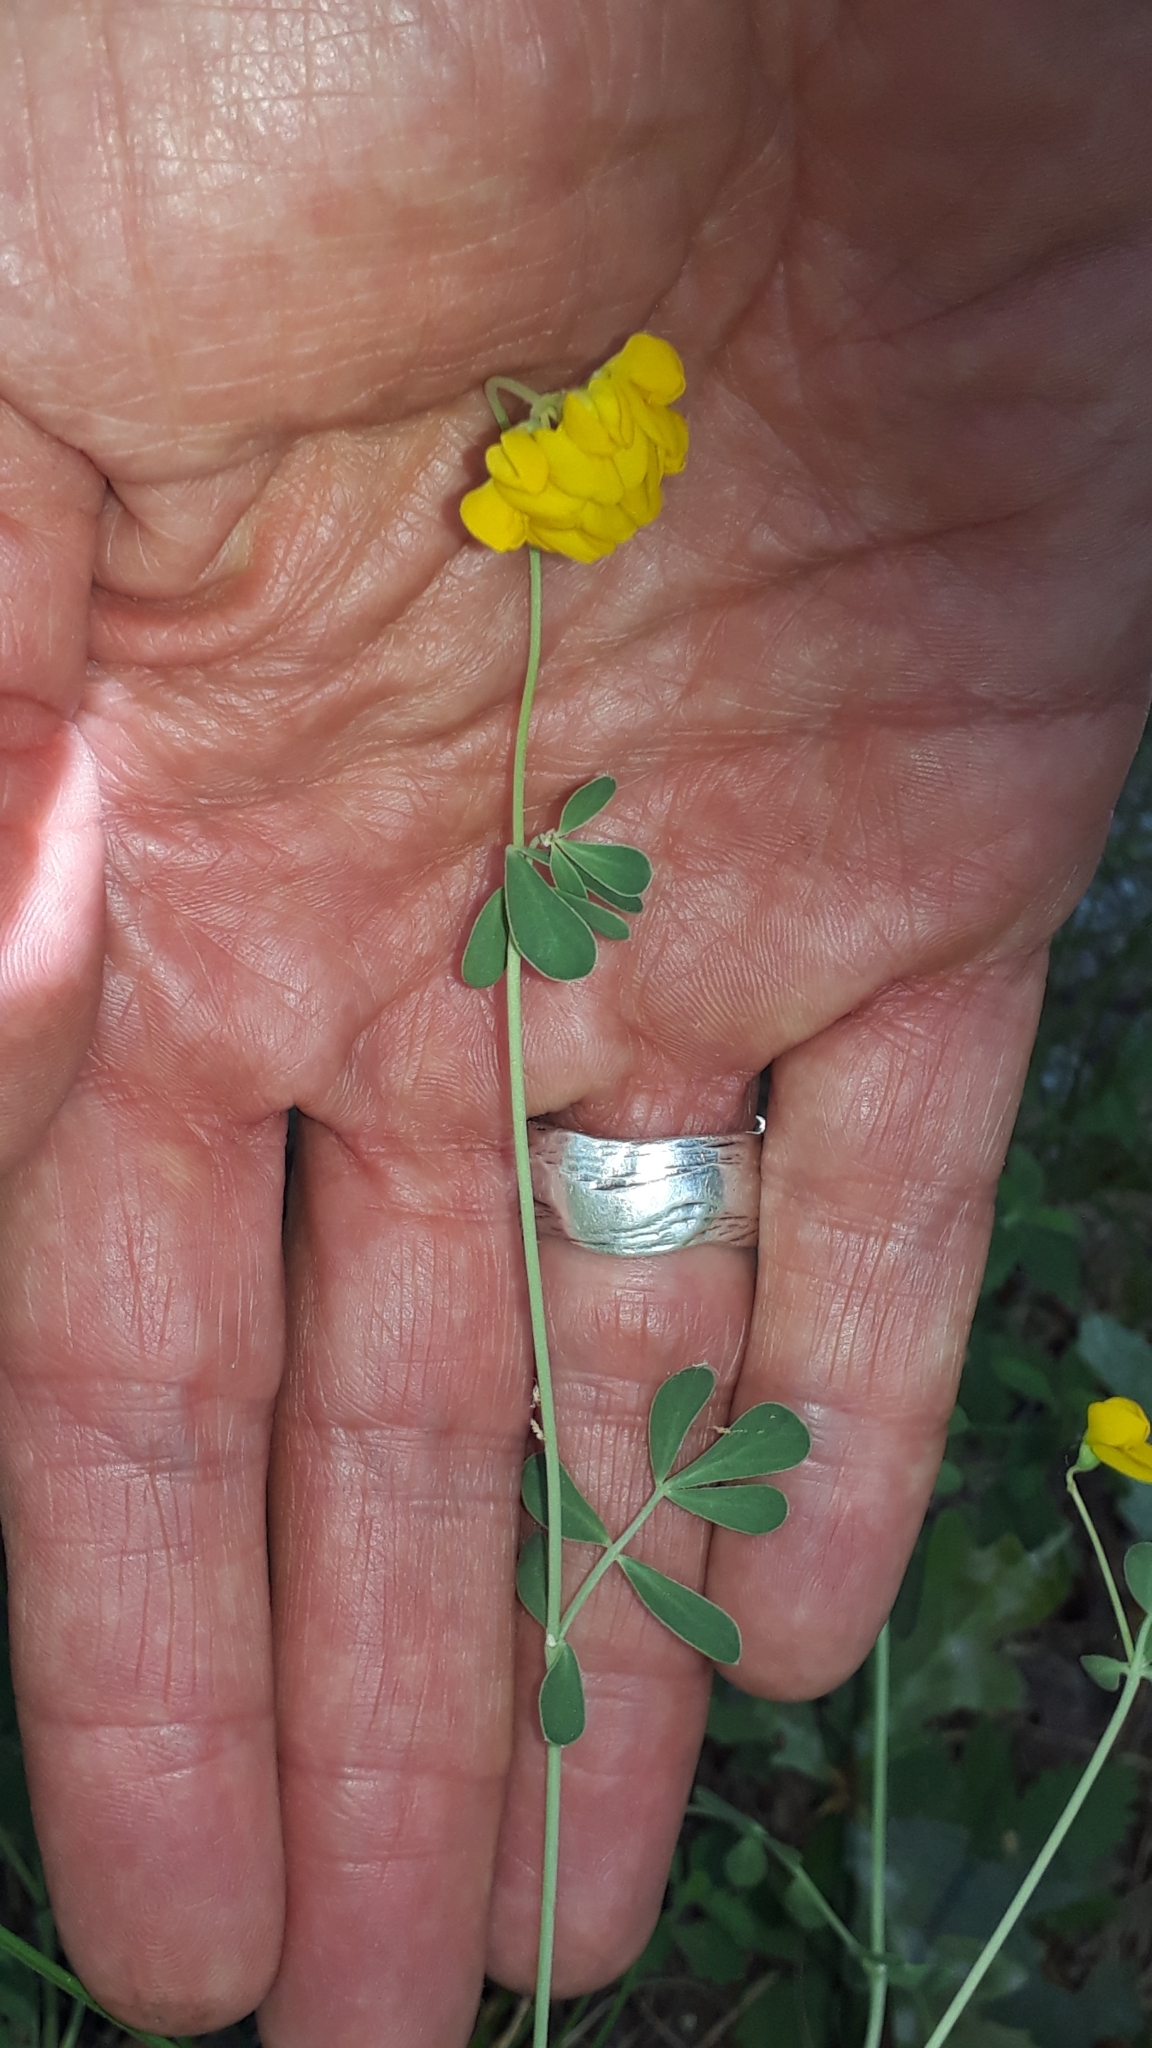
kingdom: Plantae
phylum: Tracheophyta
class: Magnoliopsida
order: Fabales
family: Fabaceae
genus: Coronilla
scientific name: Coronilla minima
